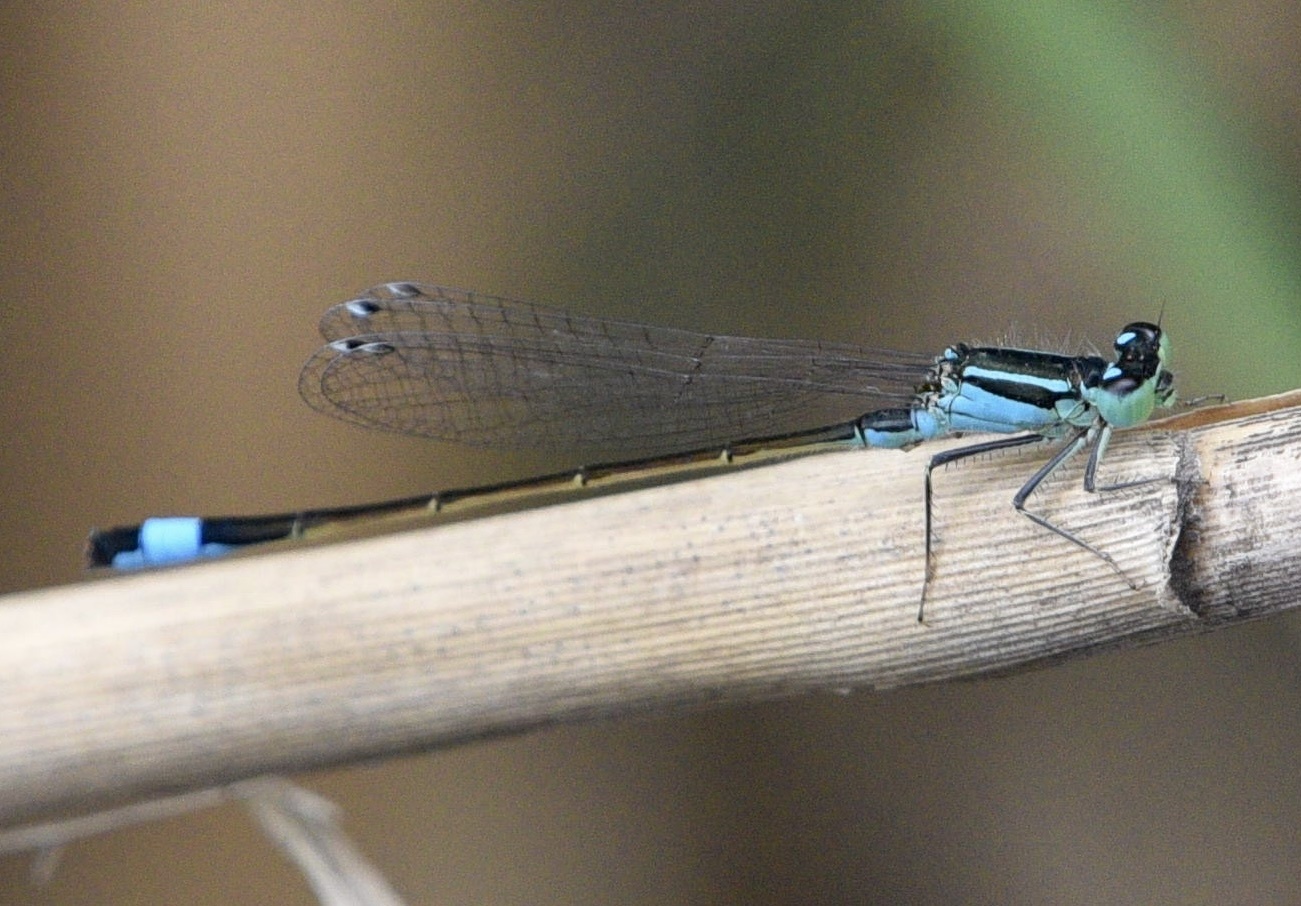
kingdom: Animalia
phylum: Arthropoda
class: Insecta
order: Odonata
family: Coenagrionidae
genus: Ischnura
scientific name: Ischnura elegans
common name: Blue-tailed damselfly
